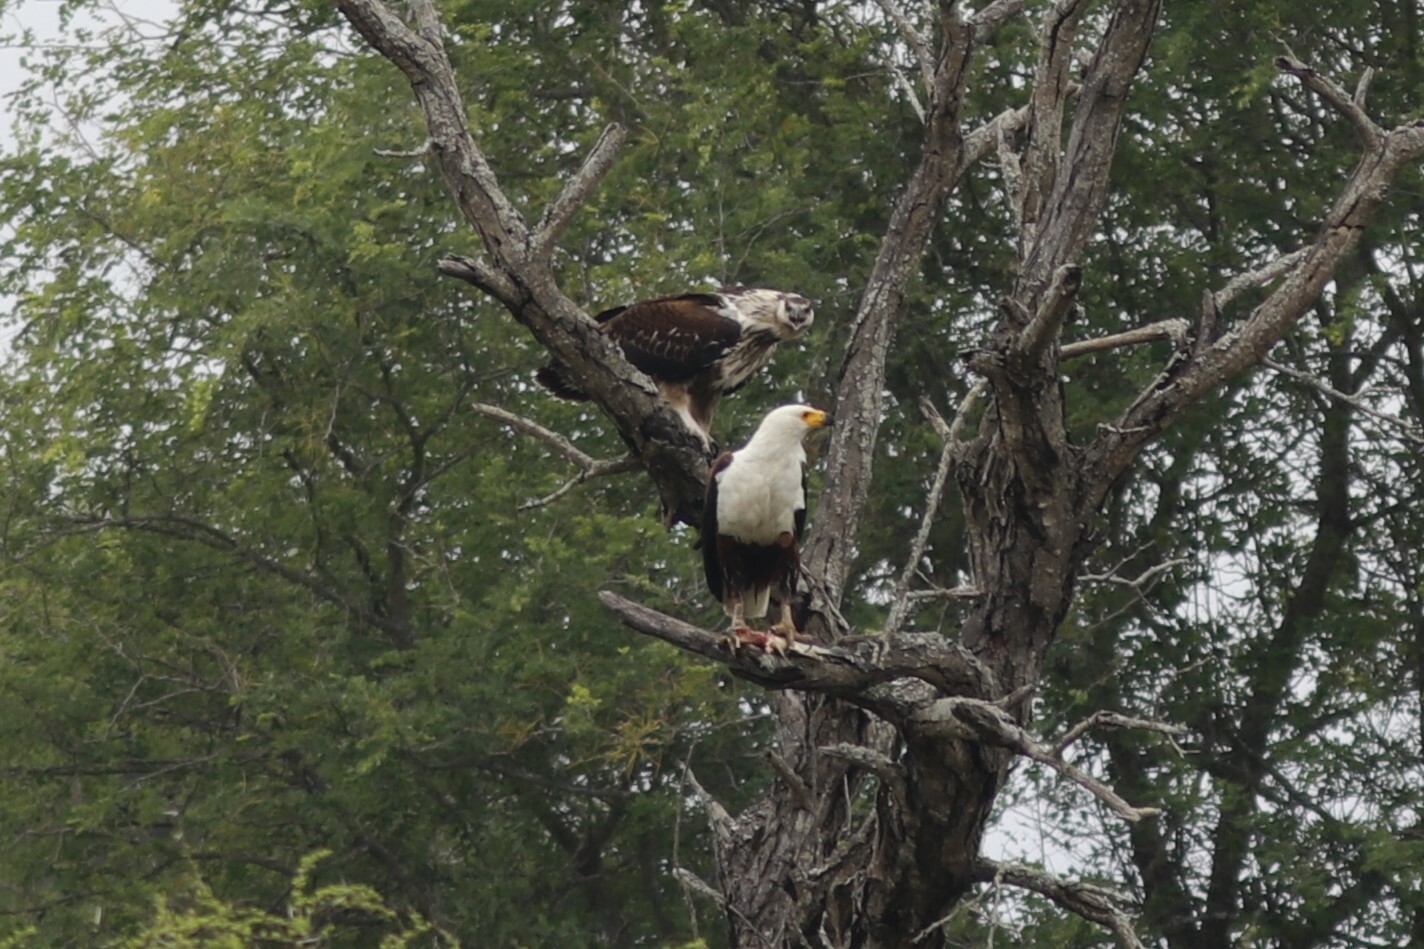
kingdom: Animalia
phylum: Chordata
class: Aves
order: Accipitriformes
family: Accipitridae
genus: Haliaeetus
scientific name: Haliaeetus vocifer
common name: African fish eagle
